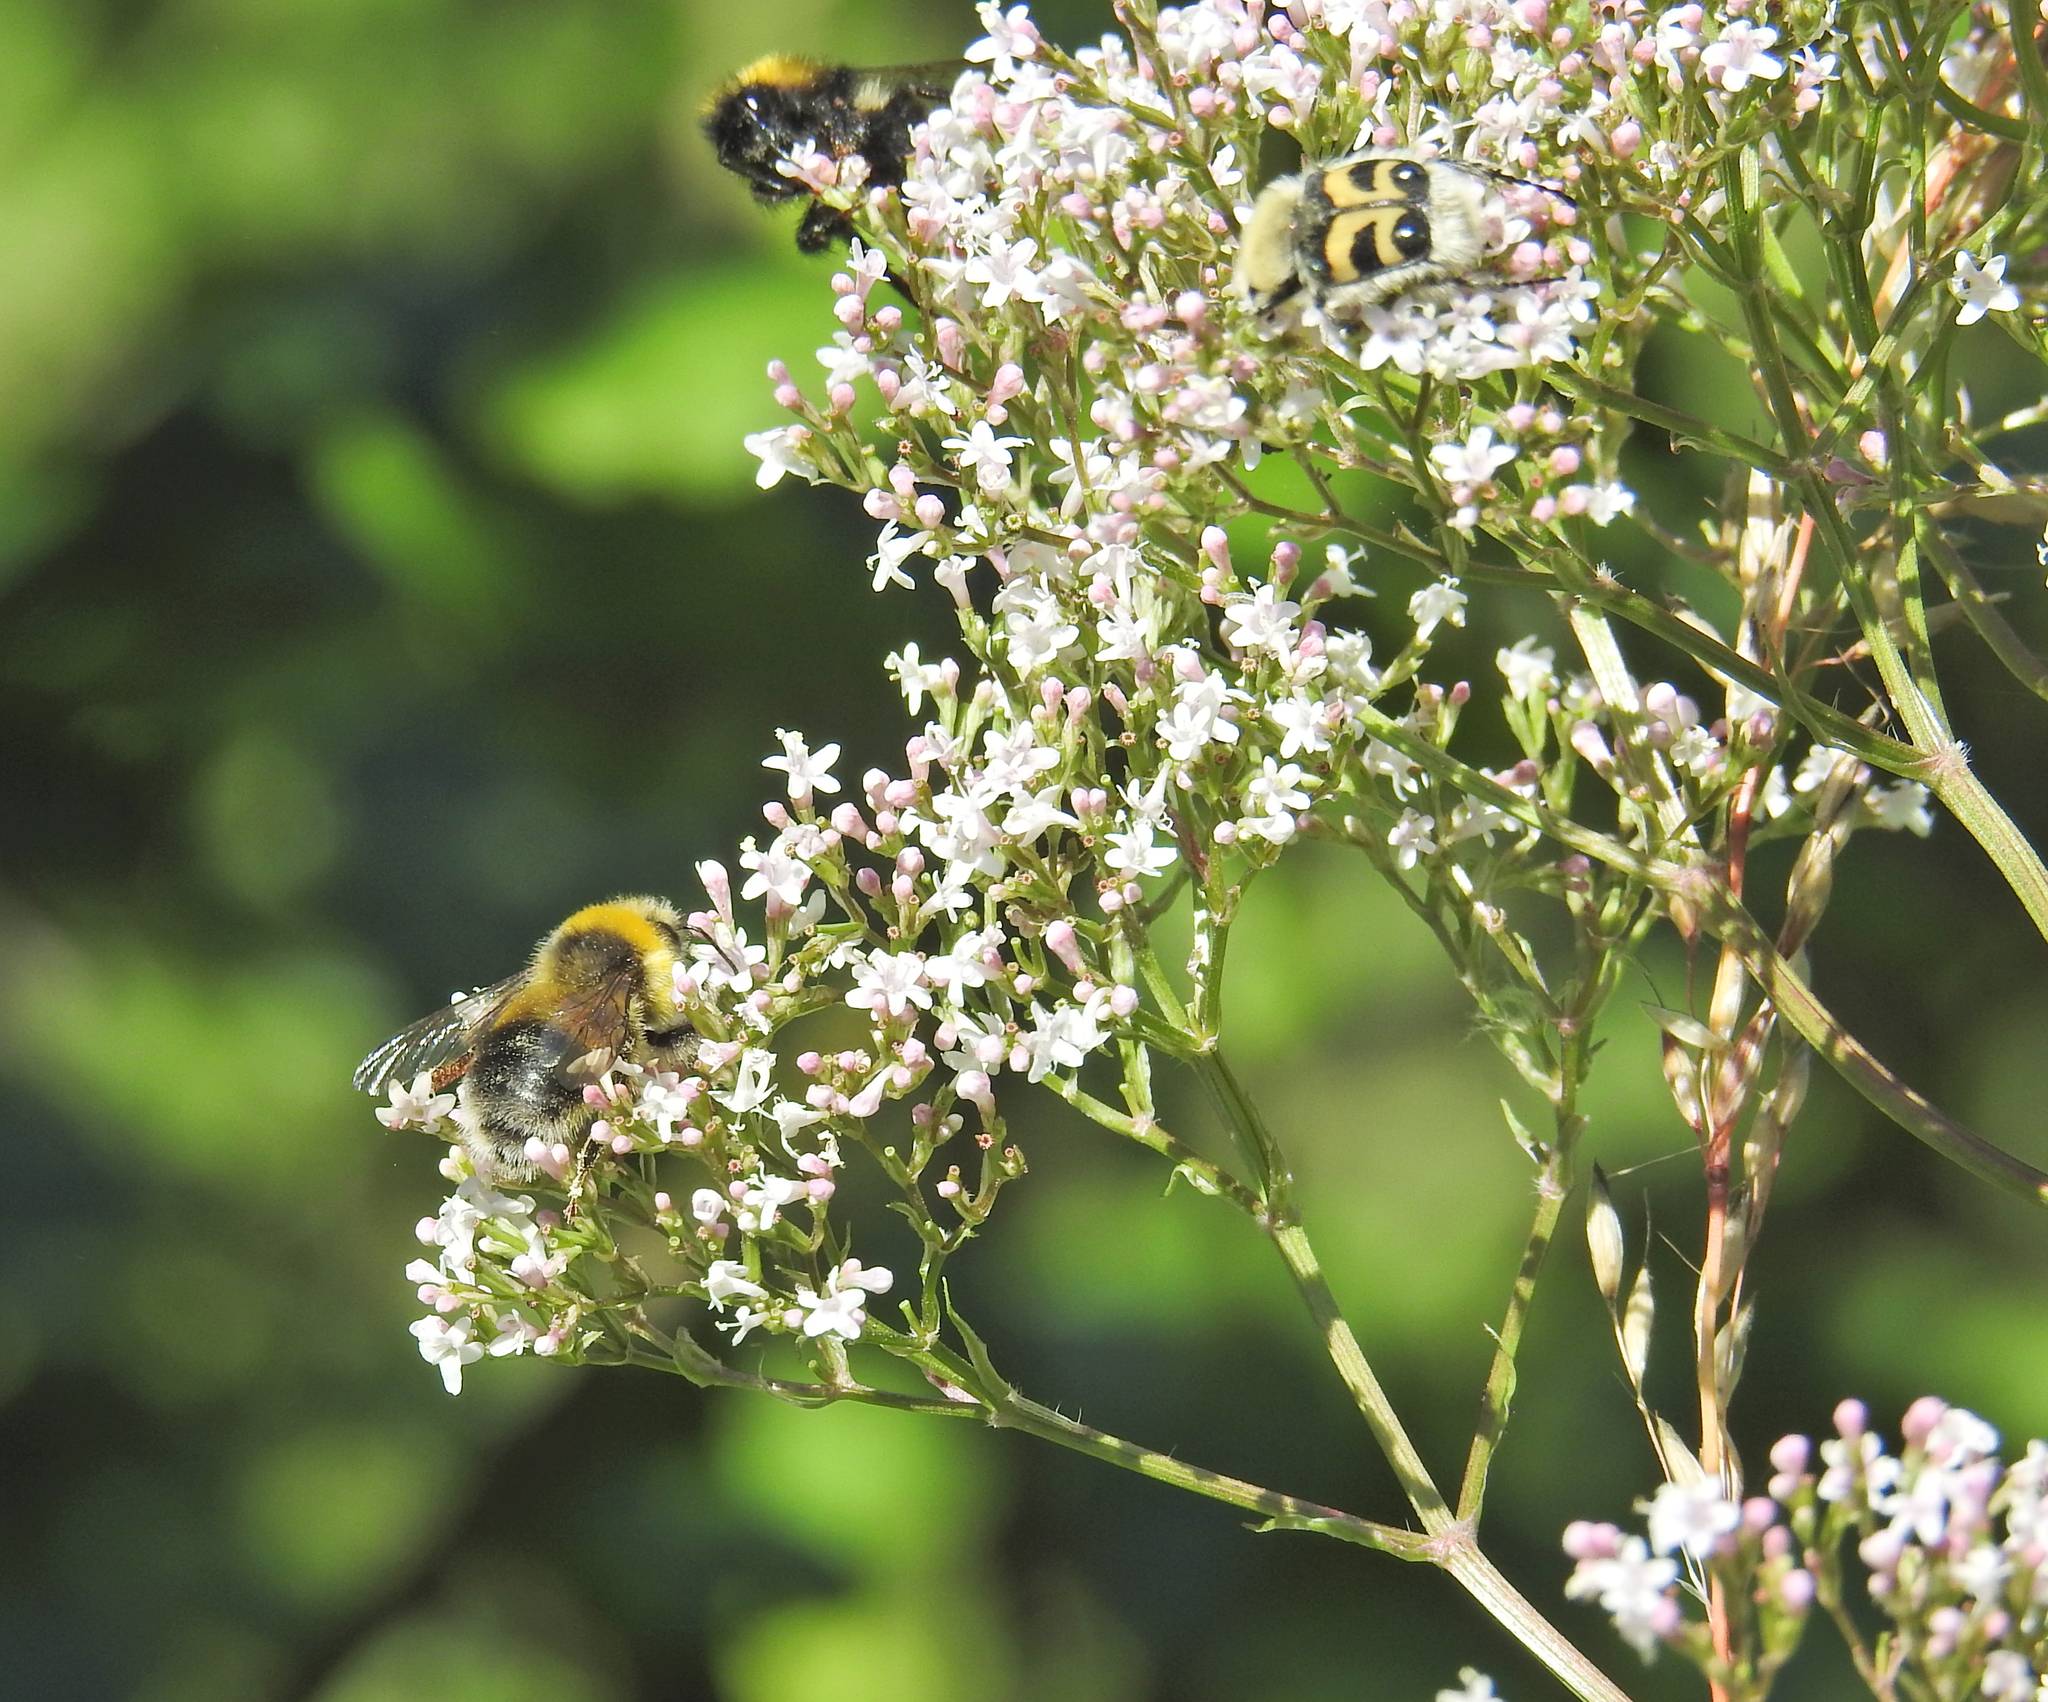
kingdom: Animalia
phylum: Arthropoda
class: Insecta
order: Coleoptera
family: Scarabaeidae
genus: Trichius
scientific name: Trichius fasciatus
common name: Bee beetle
